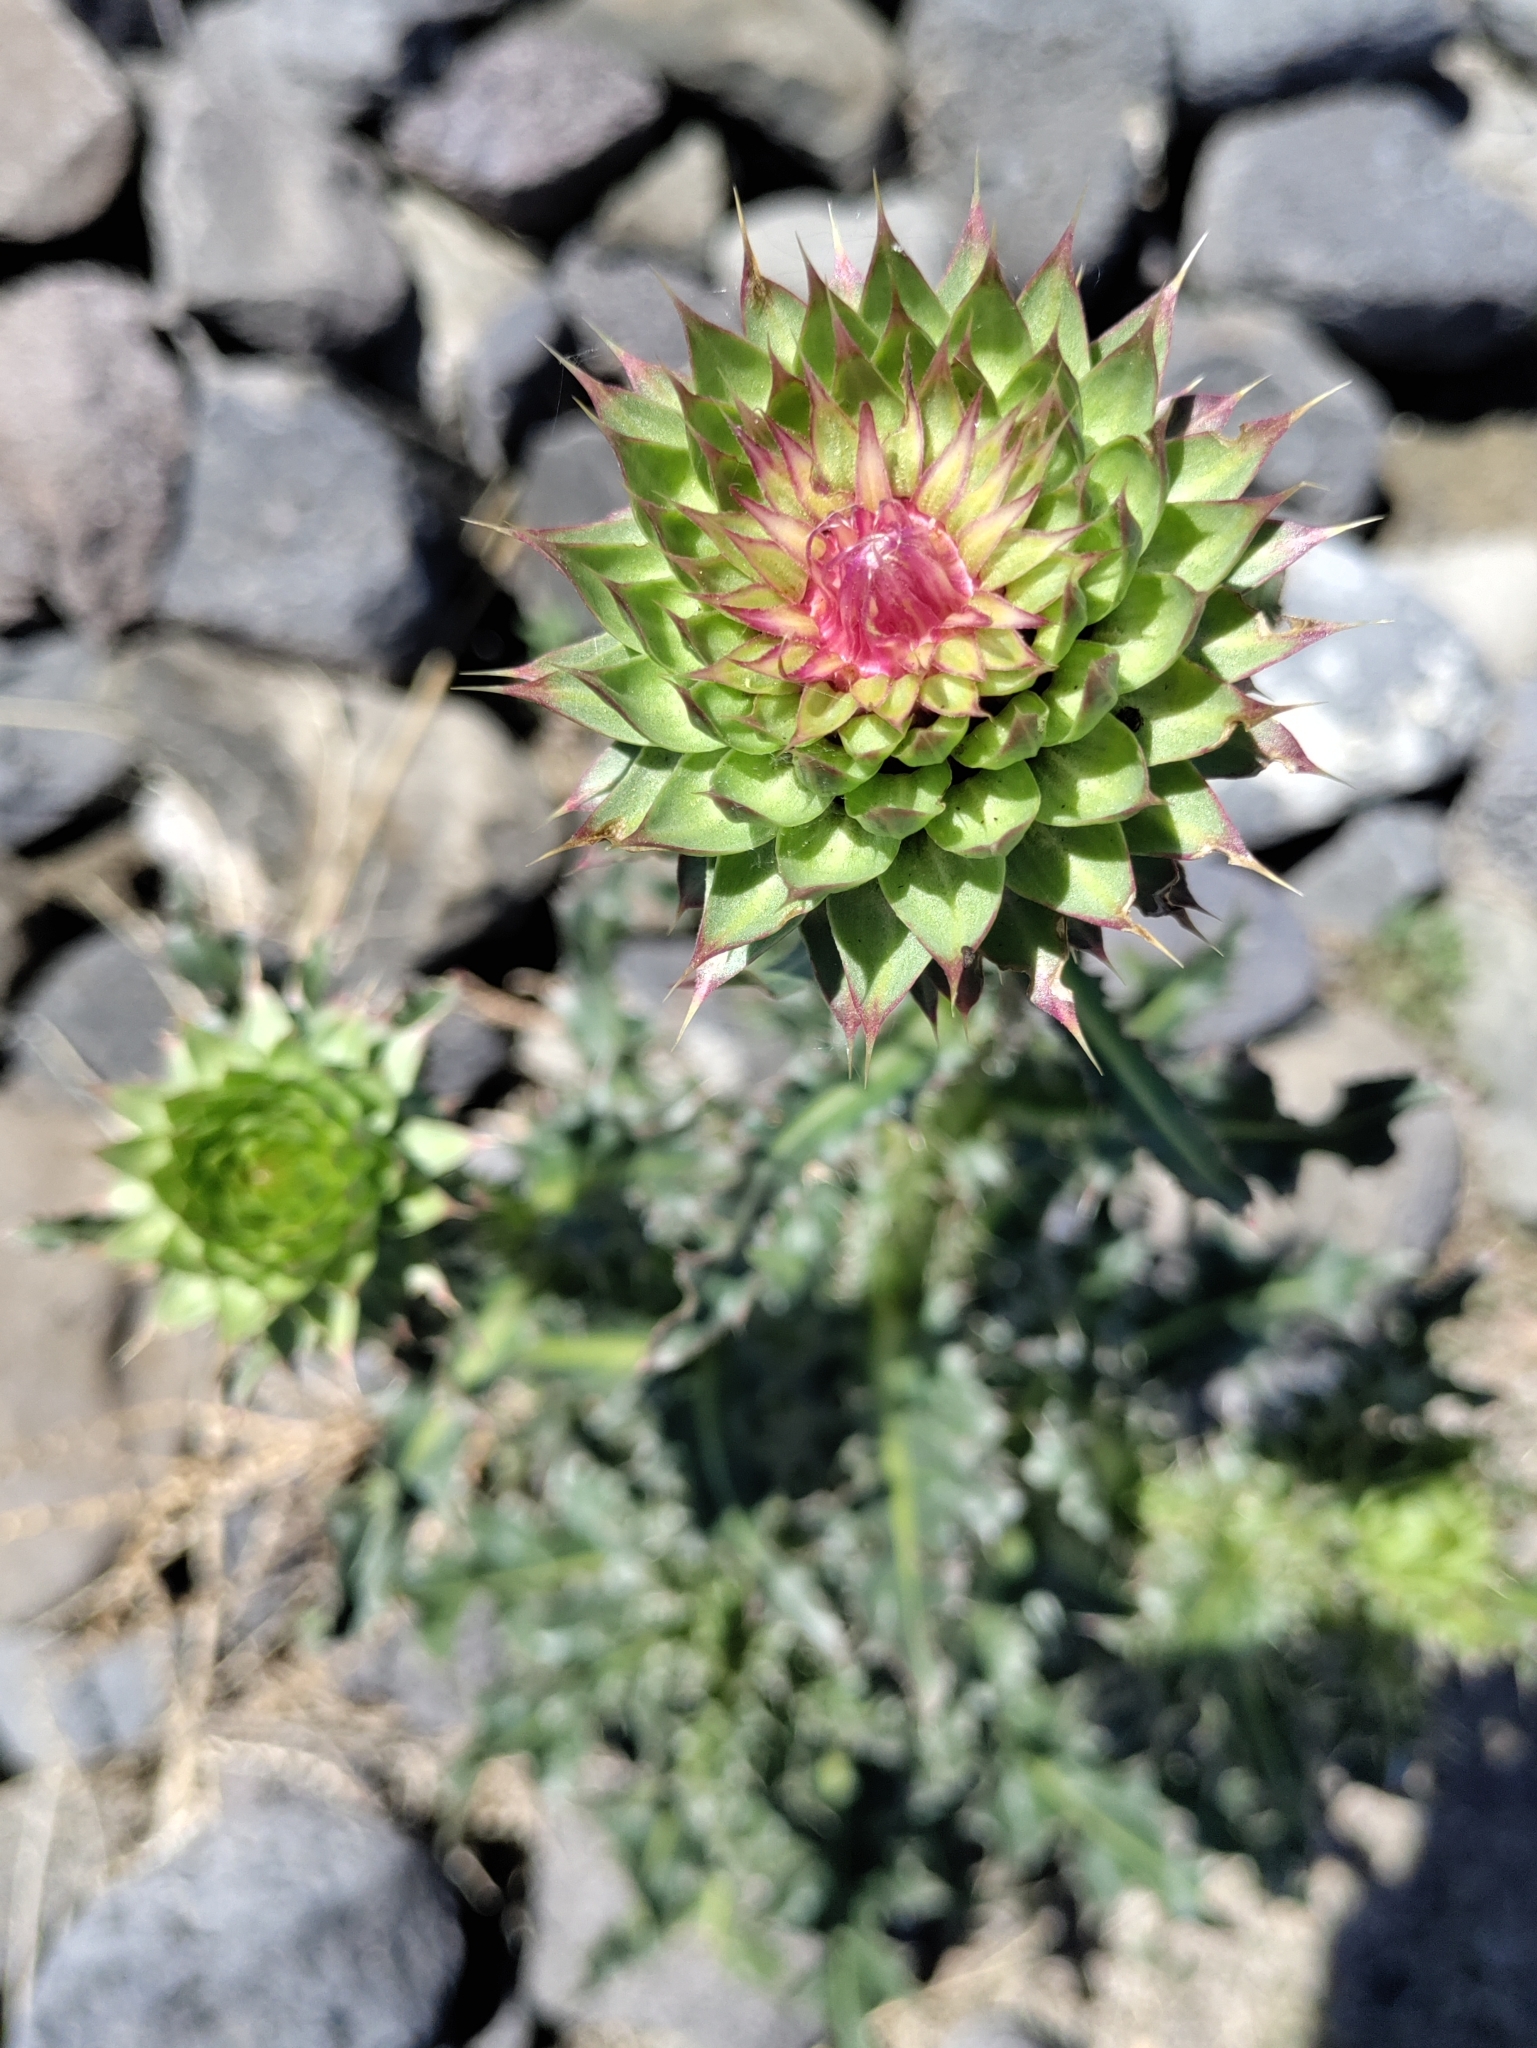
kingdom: Plantae
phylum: Tracheophyta
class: Magnoliopsida
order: Asterales
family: Asteraceae
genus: Carduus
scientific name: Carduus nutans
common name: Musk thistle
